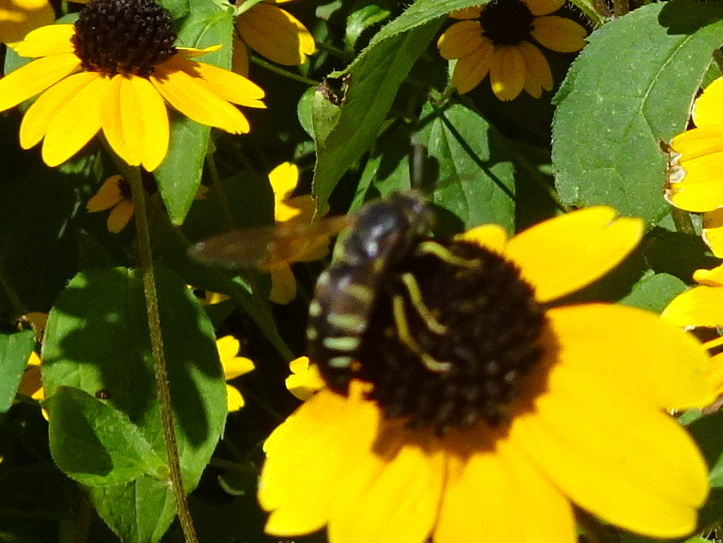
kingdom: Animalia
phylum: Arthropoda
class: Insecta
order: Hymenoptera
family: Crabronidae
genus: Bicyrtes
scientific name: Bicyrtes quadrifasciatus
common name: Four-banded stink bug hunter wasp
